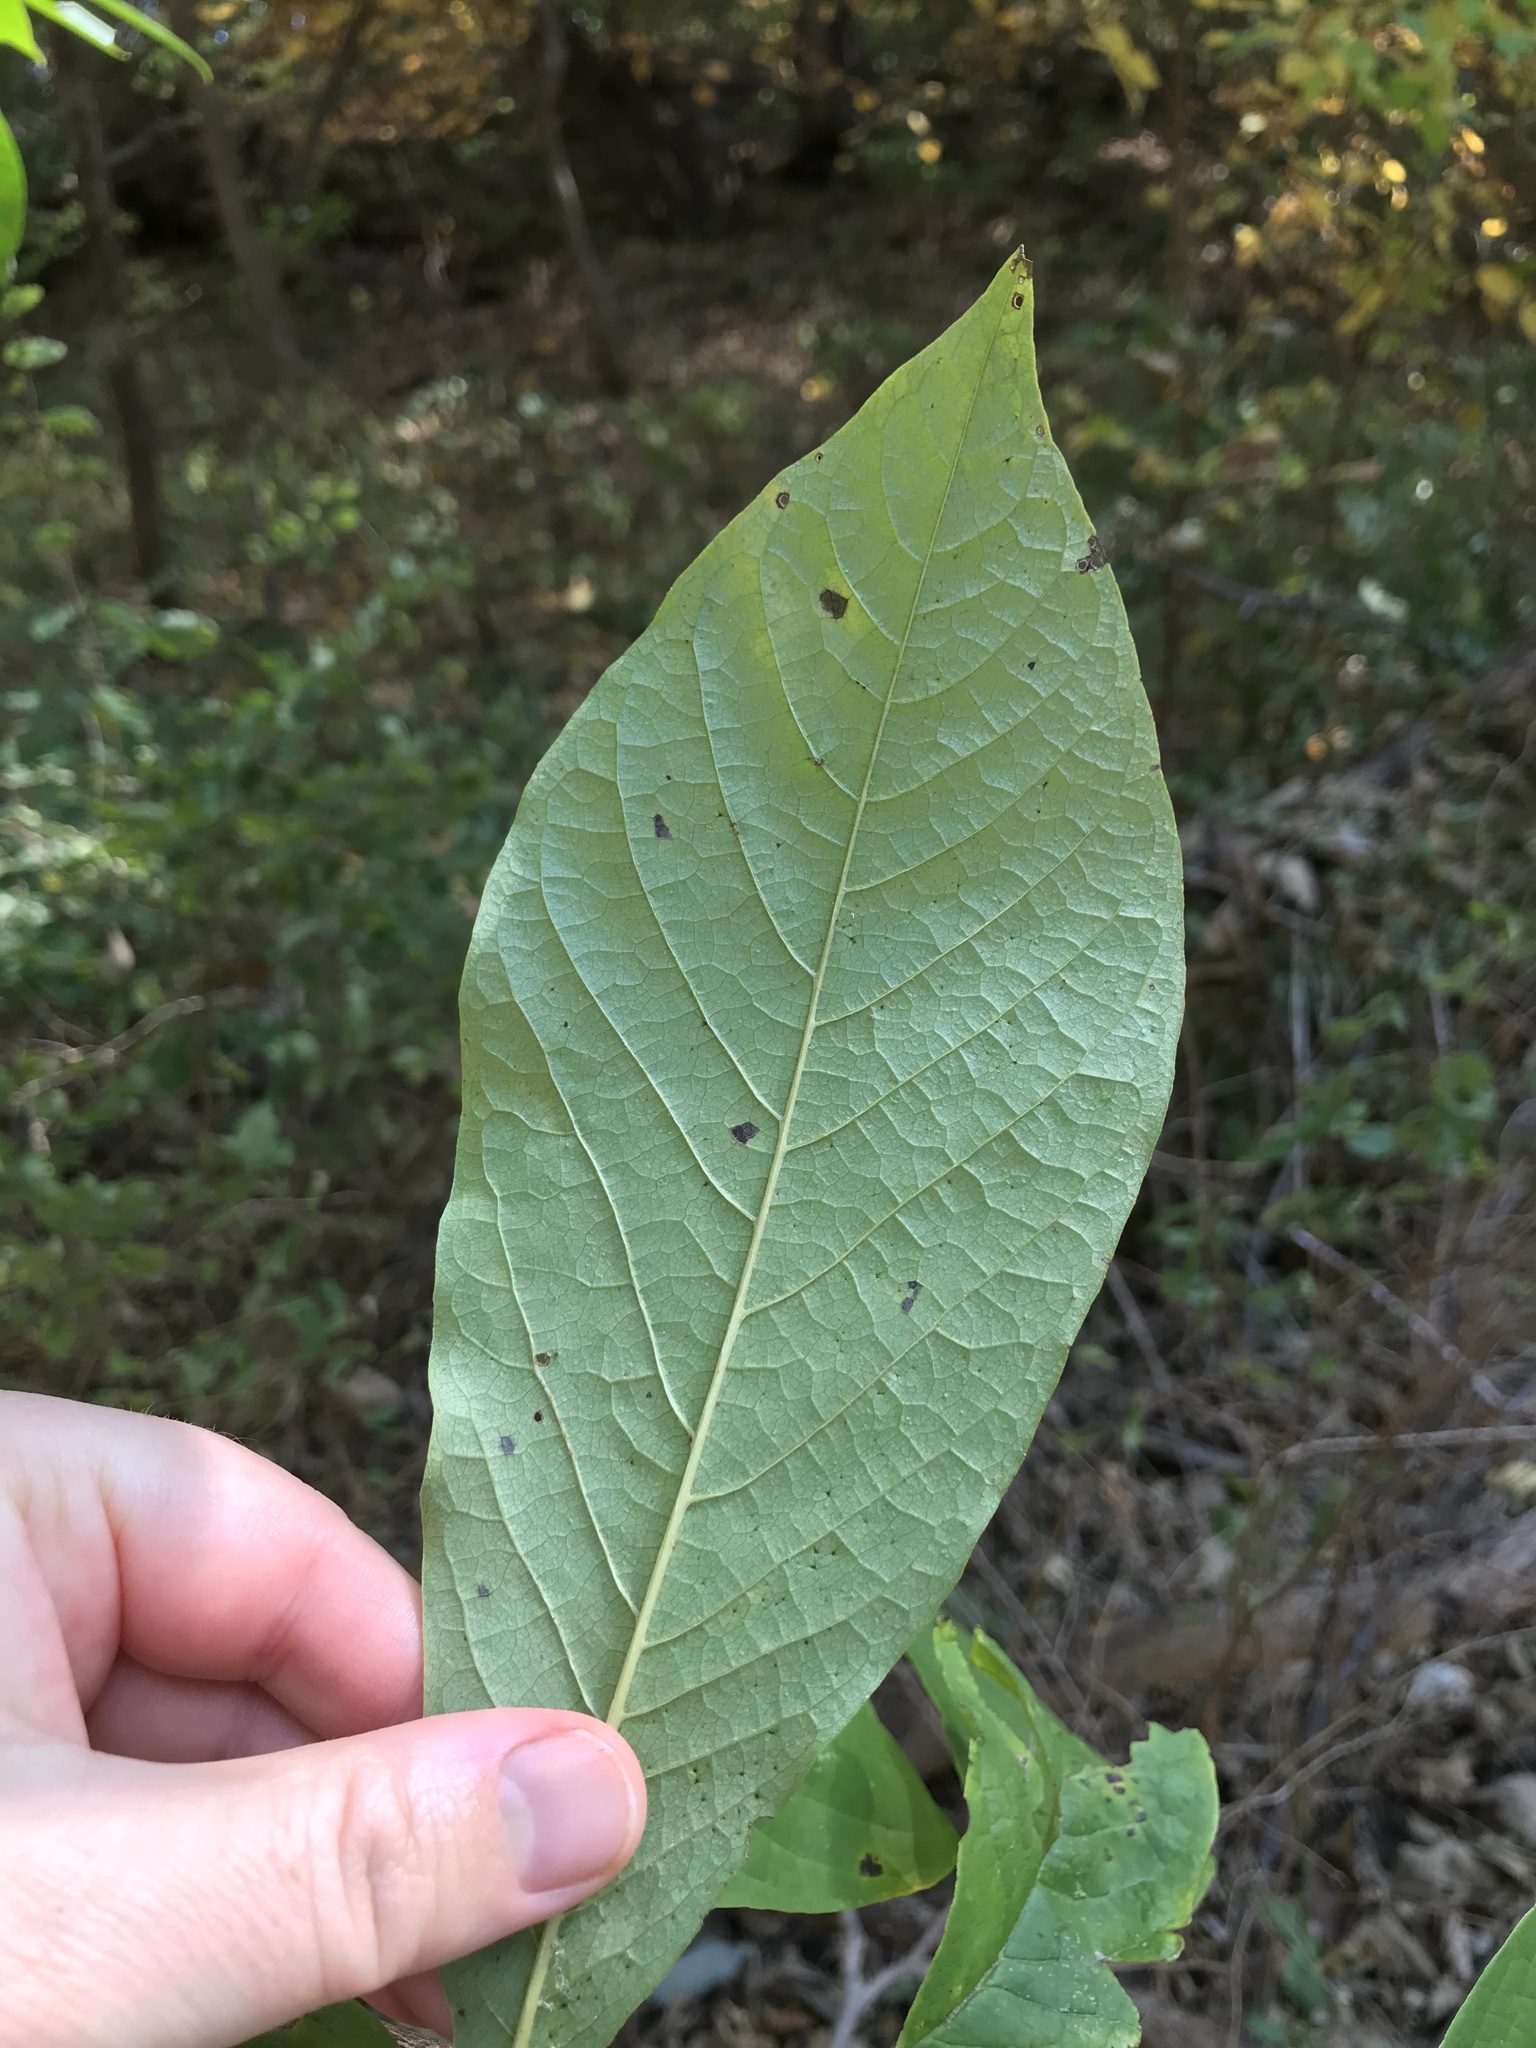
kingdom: Plantae
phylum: Tracheophyta
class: Magnoliopsida
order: Magnoliales
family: Annonaceae
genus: Asimina
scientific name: Asimina triloba
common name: Dog-banana
